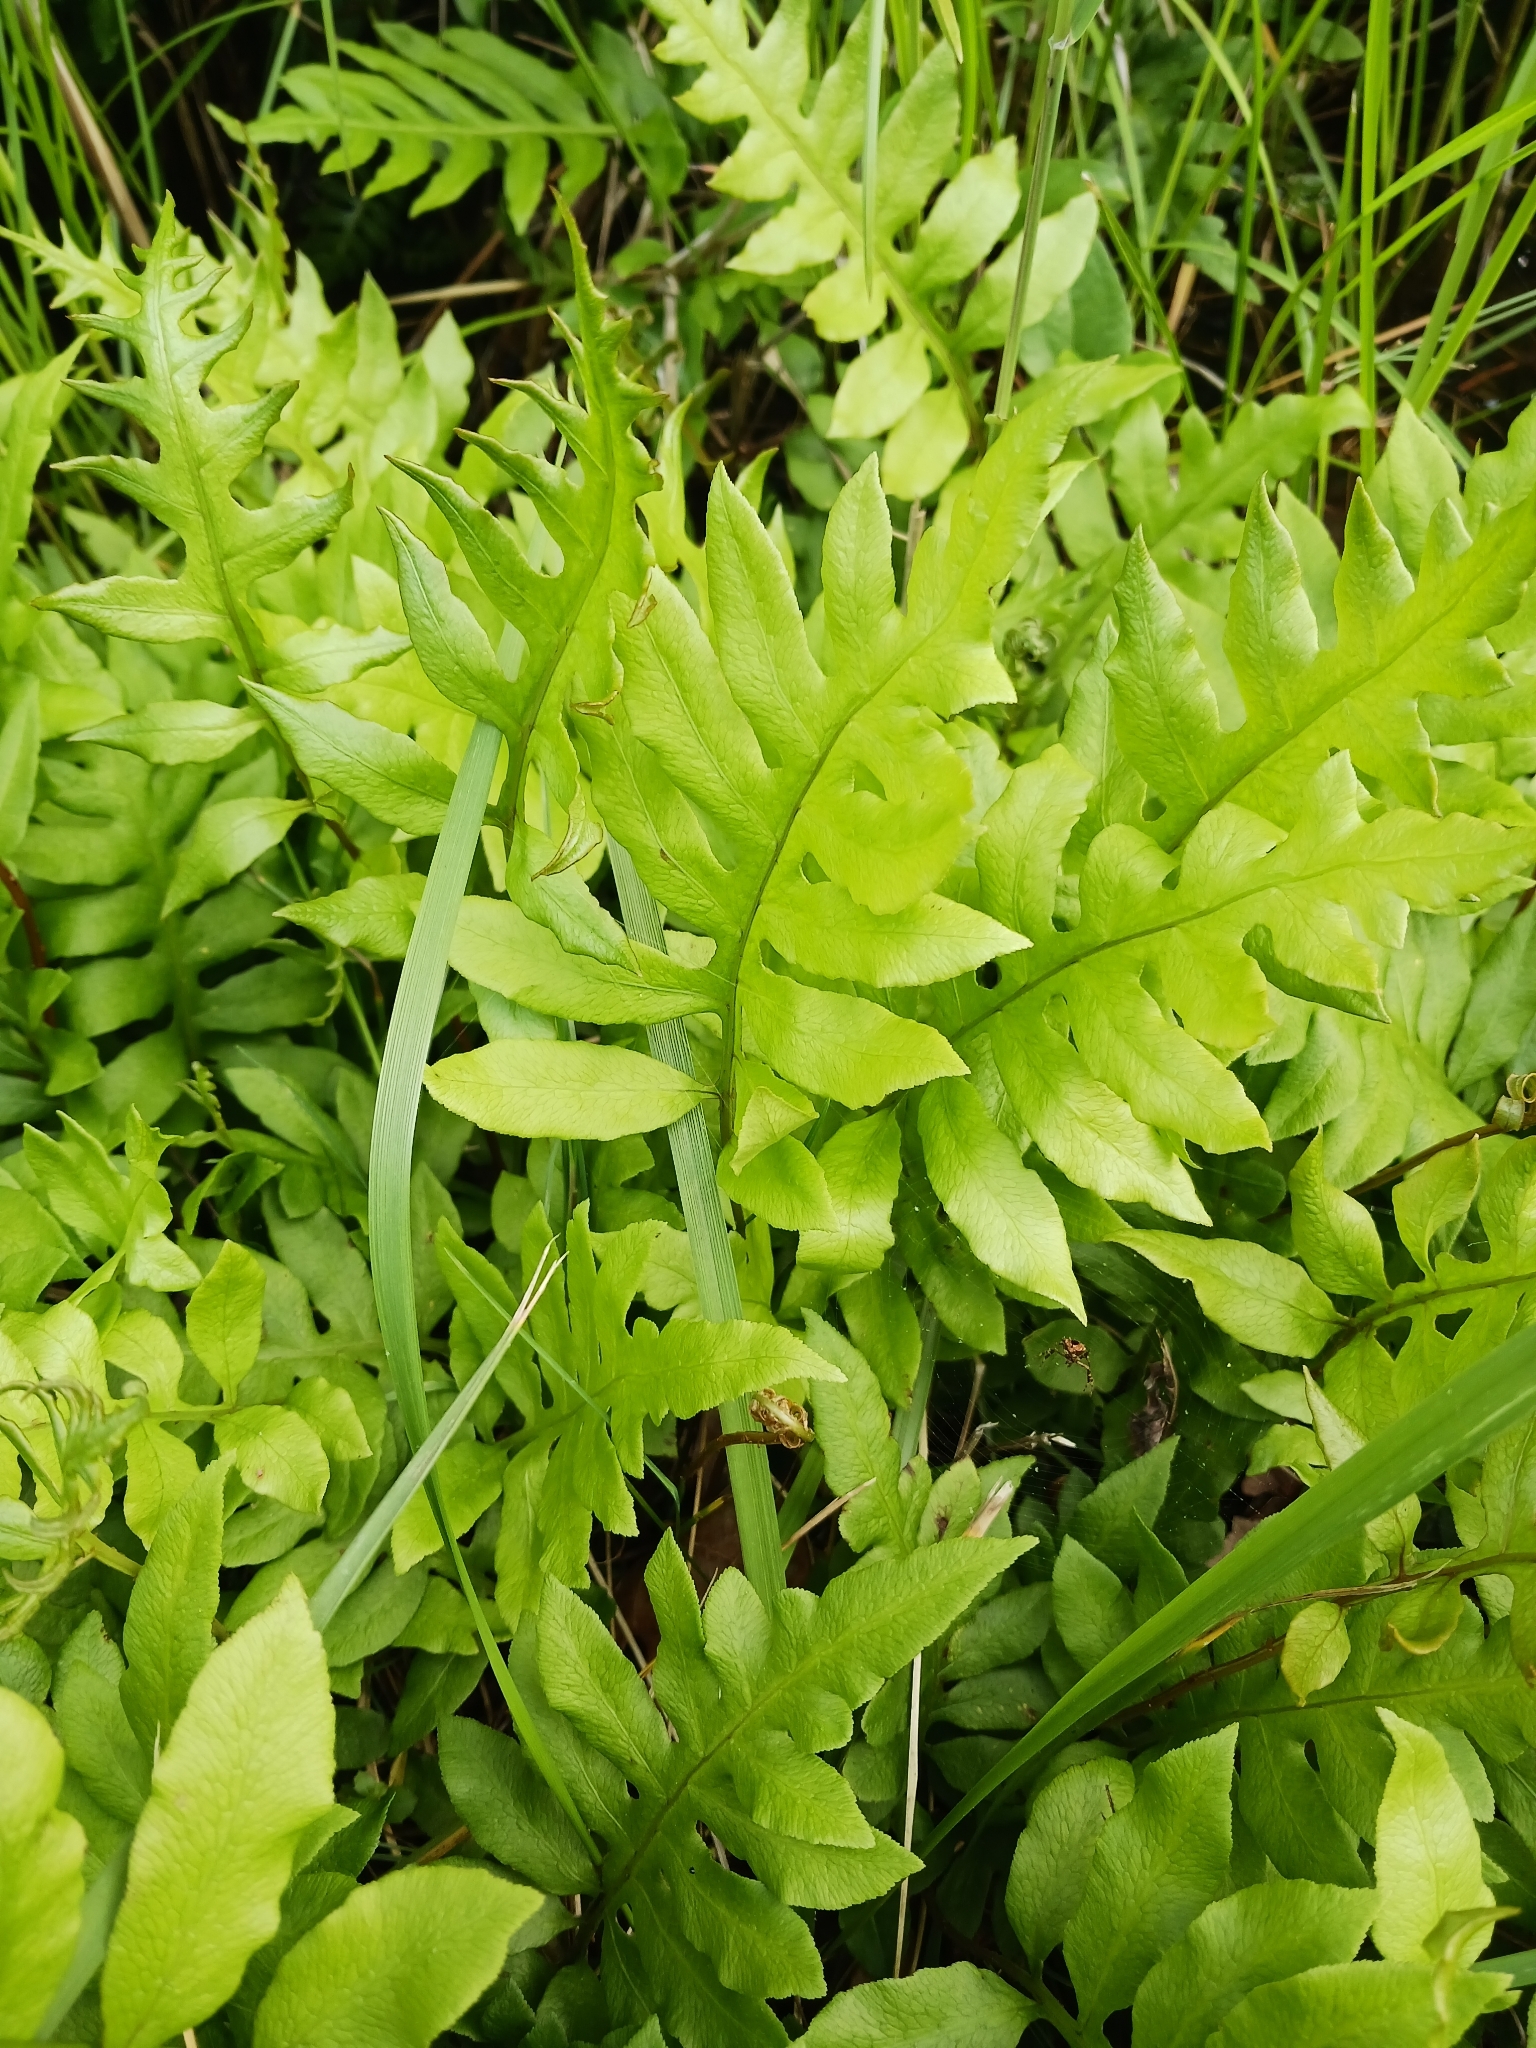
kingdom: Plantae
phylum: Tracheophyta
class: Polypodiopsida
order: Polypodiales
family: Blechnaceae
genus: Lorinseria
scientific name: Lorinseria areolata
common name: Dwarf chain fern
